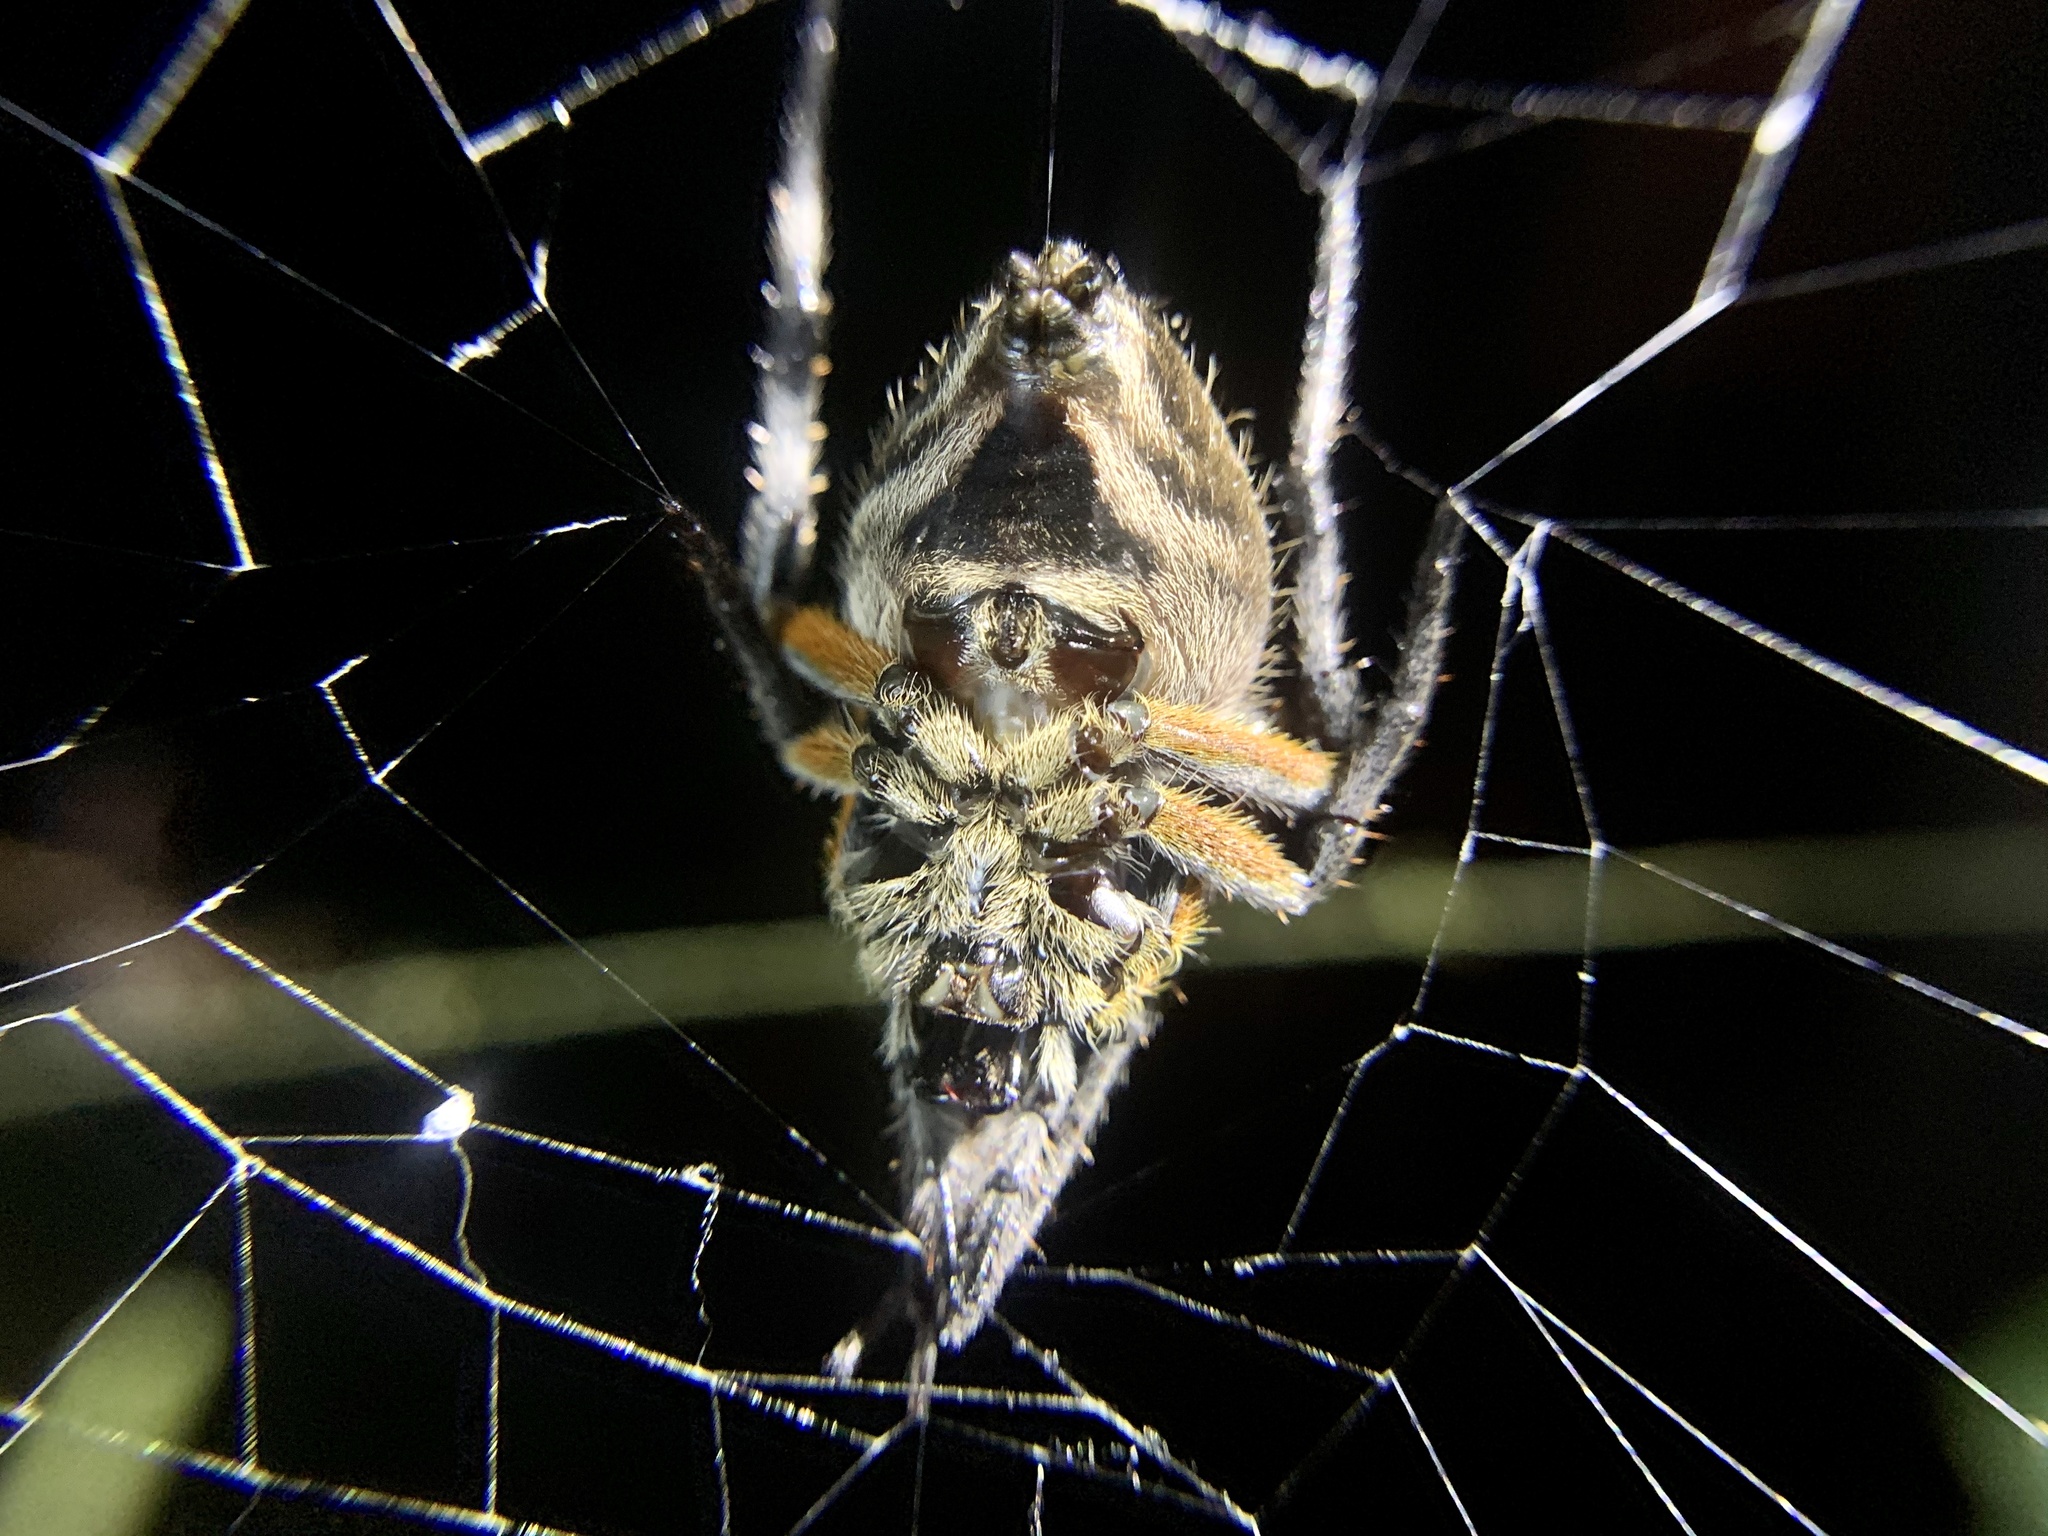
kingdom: Animalia
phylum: Arthropoda
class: Arachnida
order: Araneae
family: Araneidae
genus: Eriophora
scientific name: Eriophora fuliginea
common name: Orb weavers
